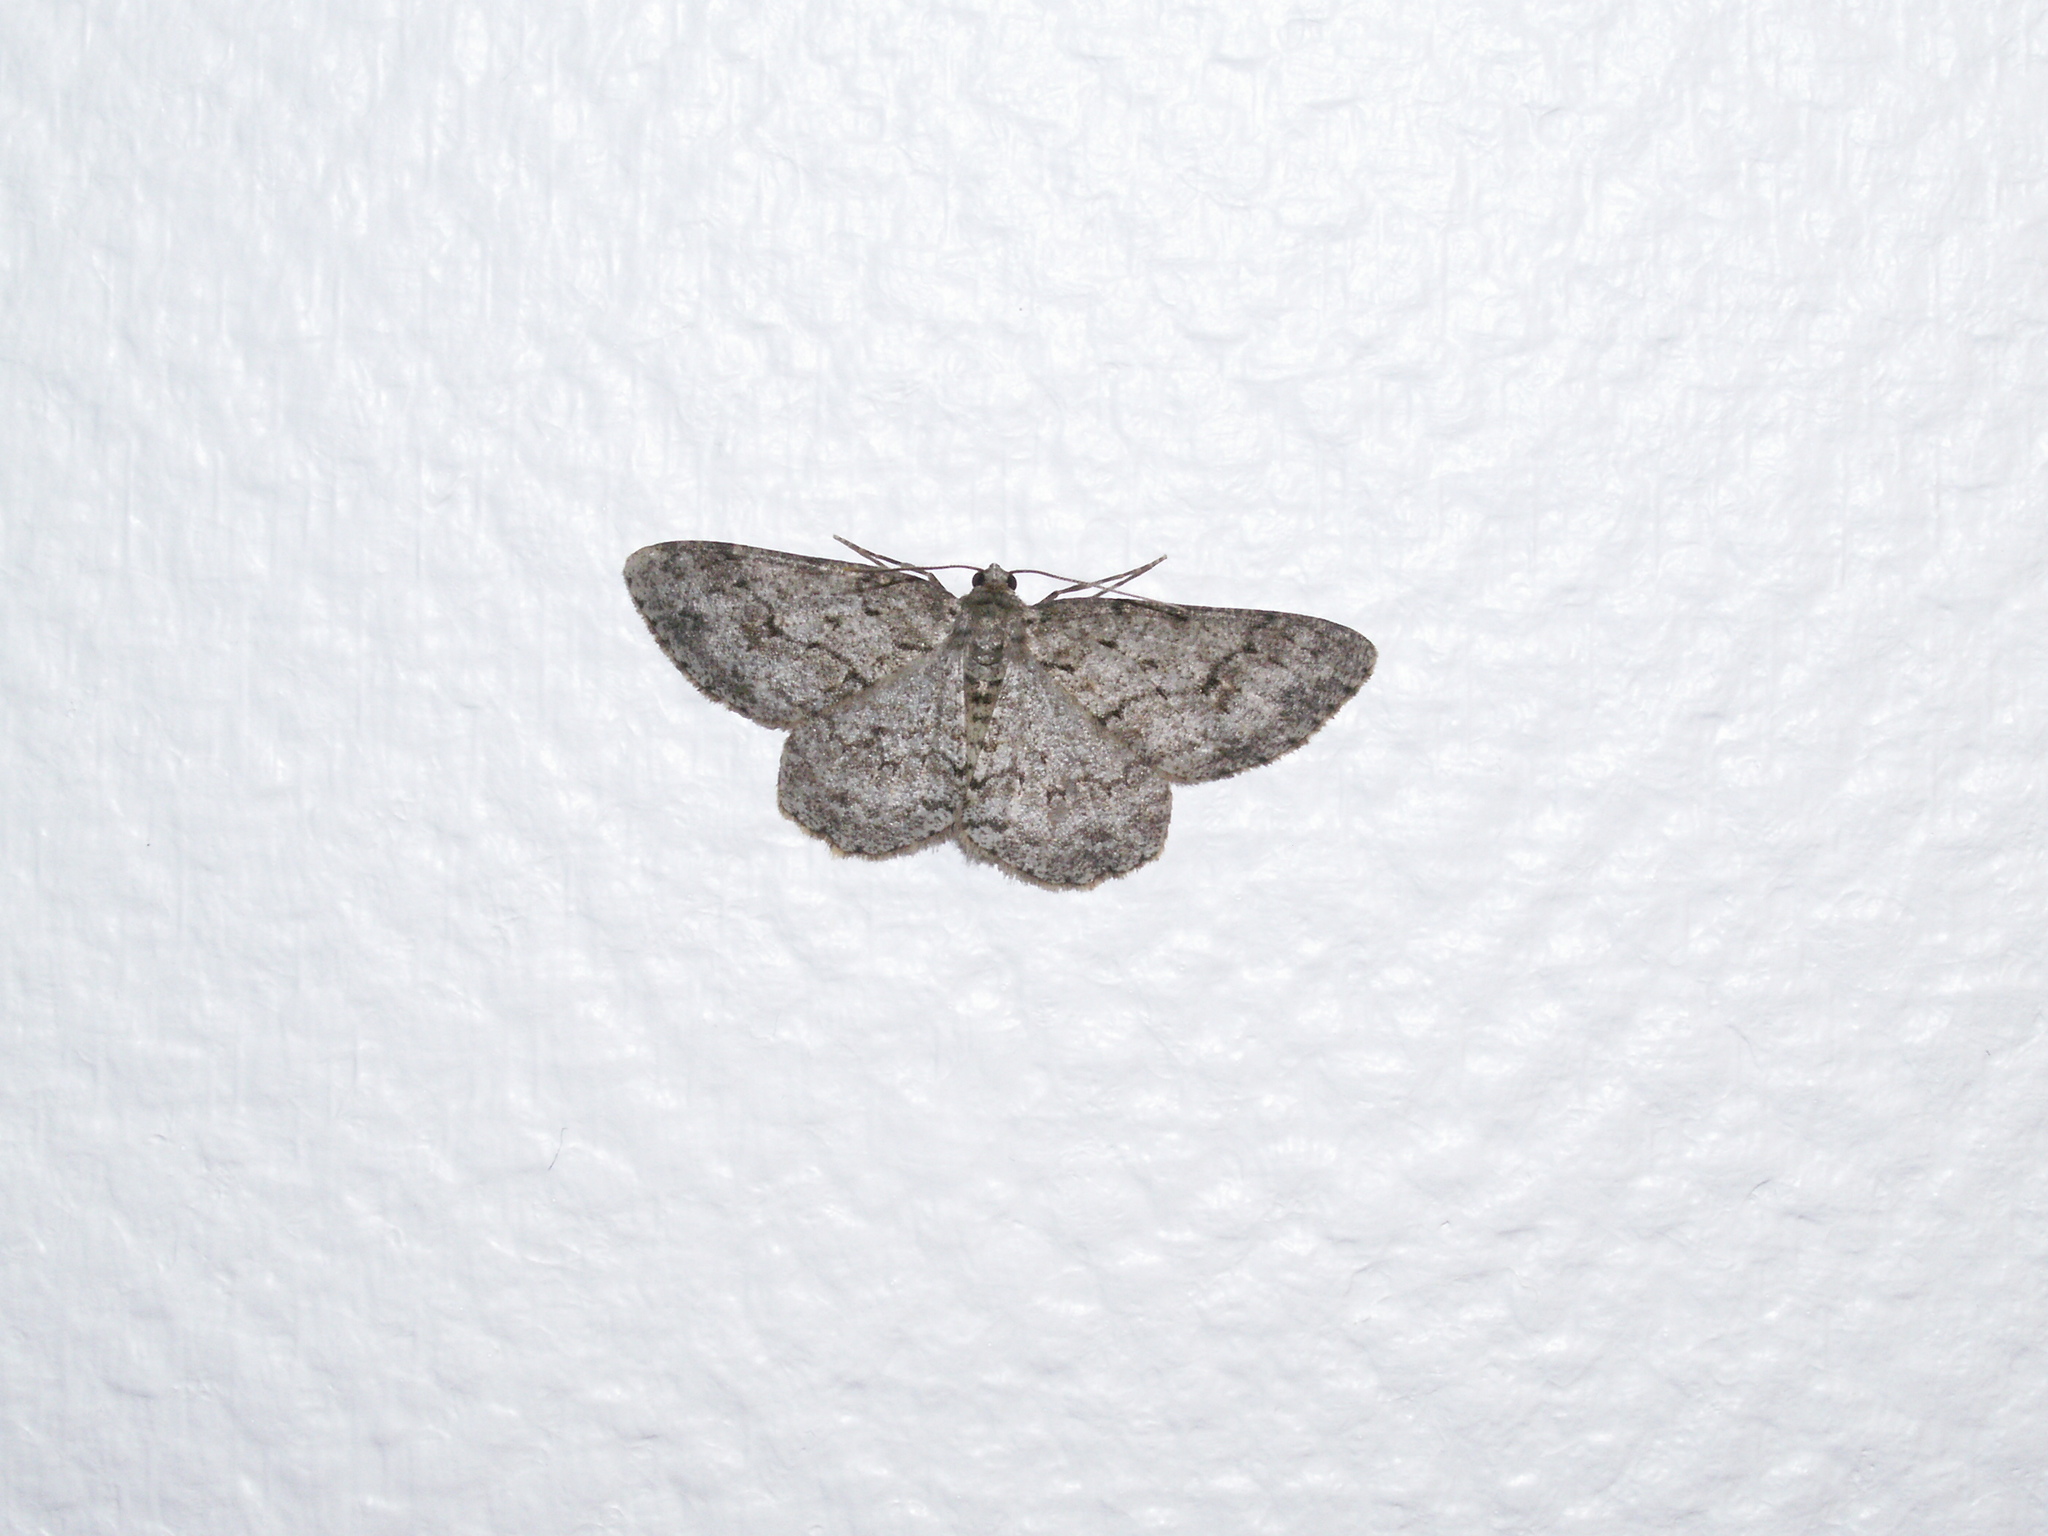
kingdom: Animalia
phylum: Arthropoda
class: Insecta
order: Lepidoptera
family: Geometridae
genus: Ectropis
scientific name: Ectropis crepuscularia
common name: Engrailed
